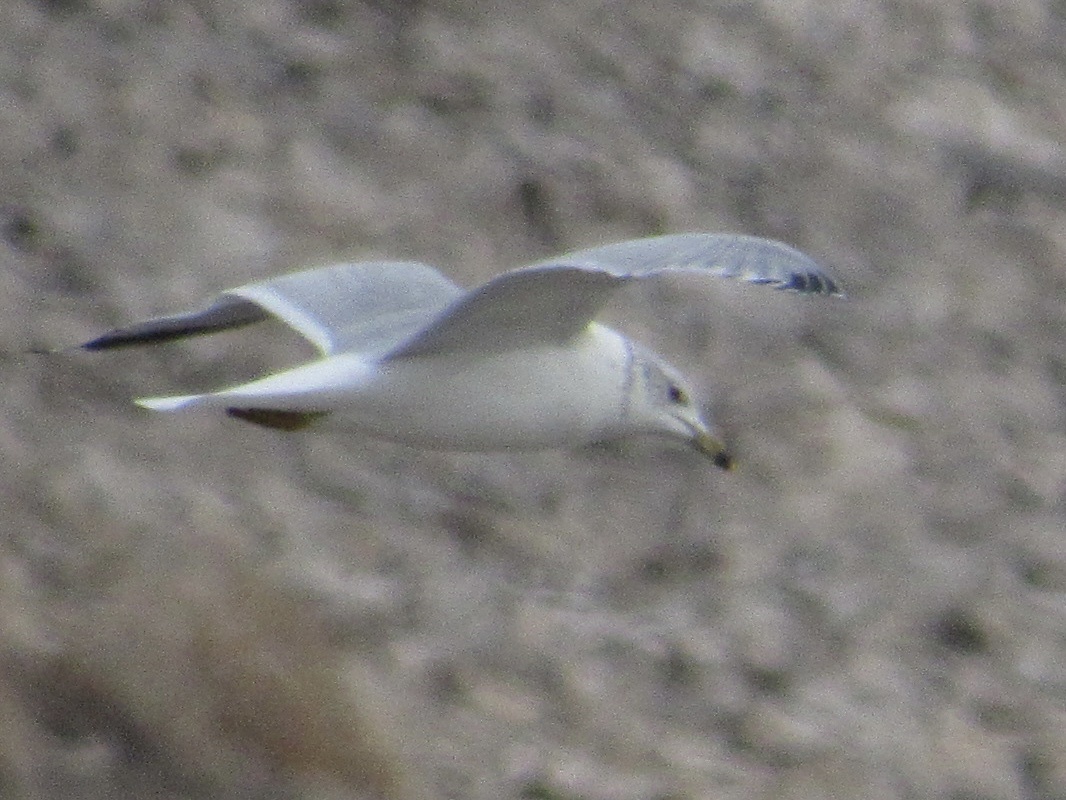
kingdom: Animalia
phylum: Chordata
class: Aves
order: Charadriiformes
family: Laridae
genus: Larus
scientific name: Larus delawarensis
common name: Ring-billed gull
